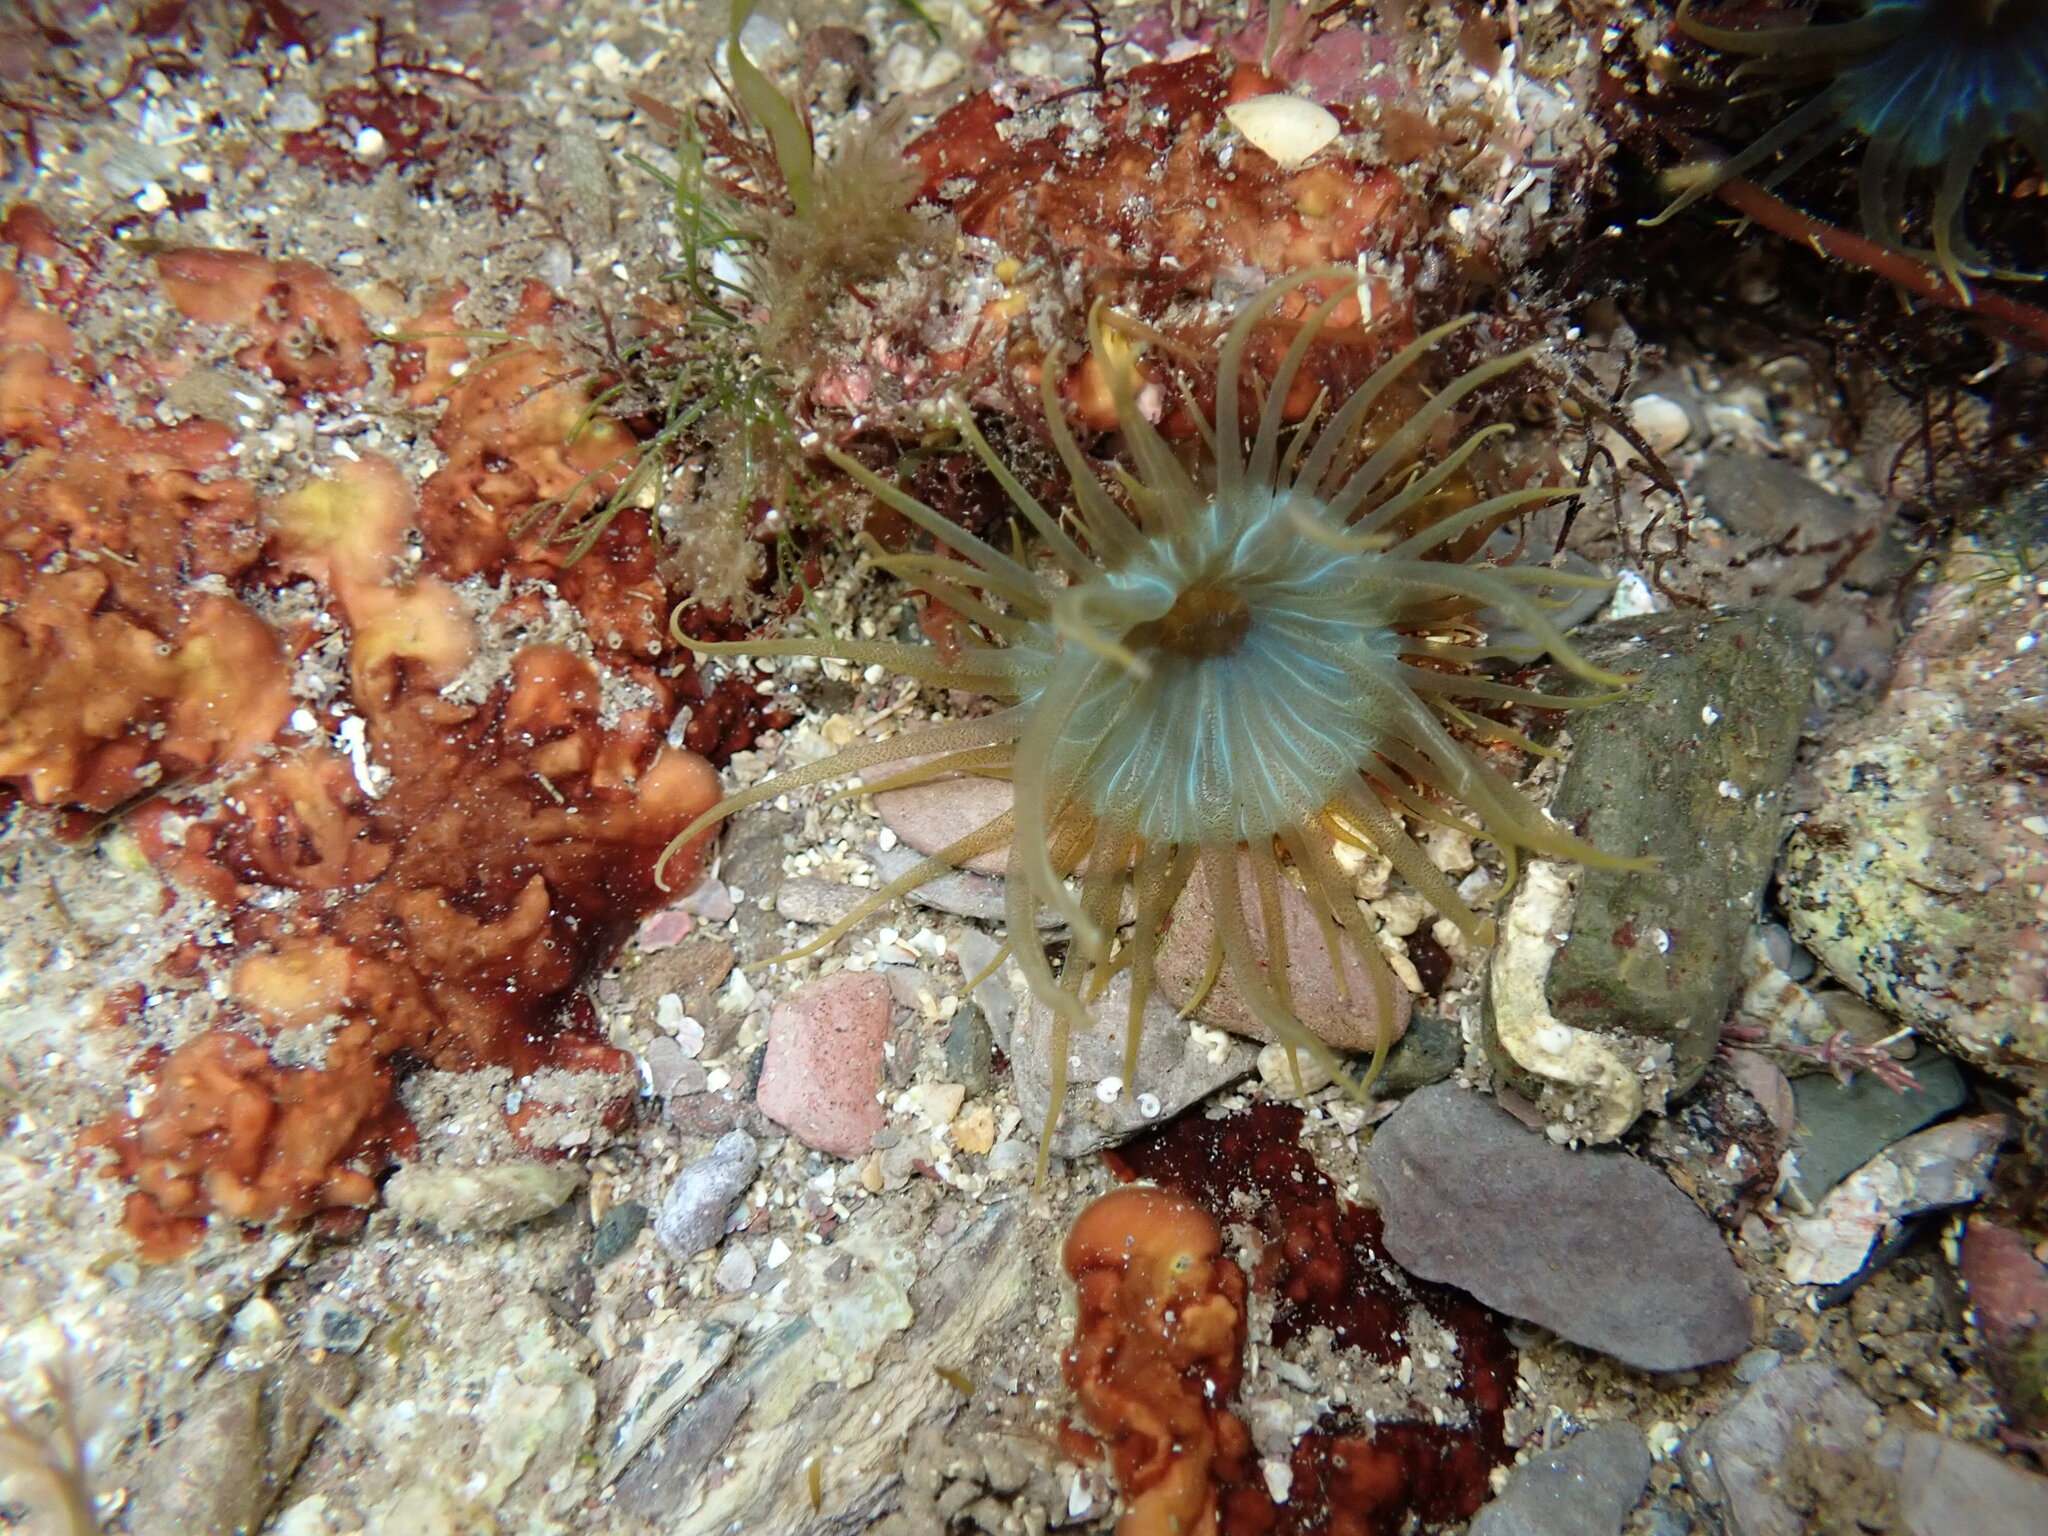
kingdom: Animalia
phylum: Cnidaria
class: Anthozoa
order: Actiniaria
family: Aiptasiidae
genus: Aiptasia
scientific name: Aiptasia couchii
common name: Trumpet anemone
